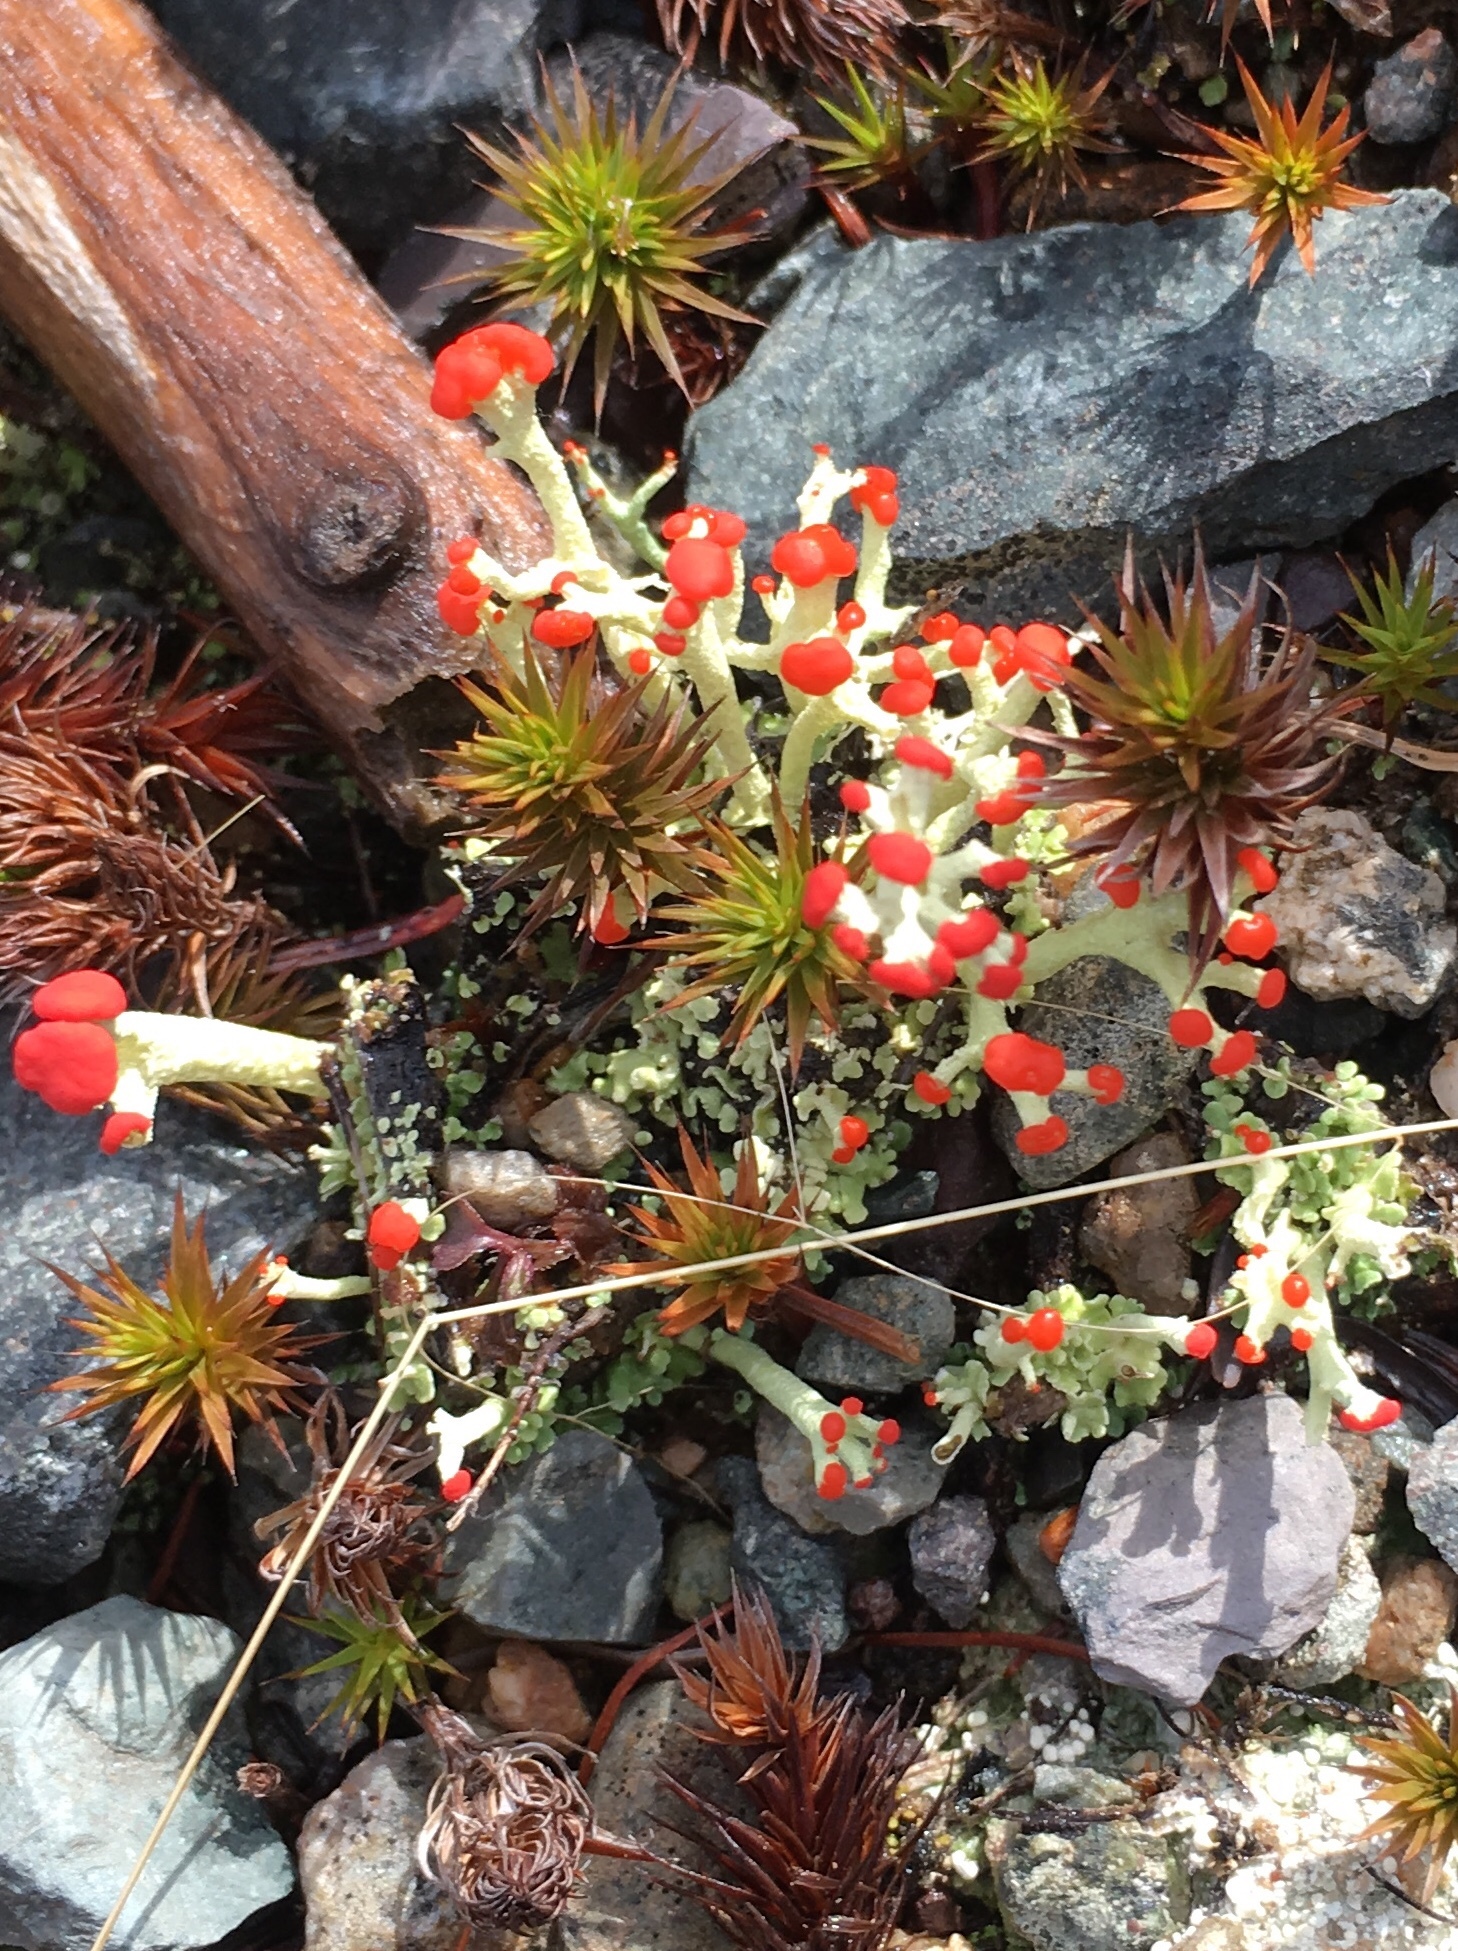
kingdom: Fungi
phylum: Ascomycota
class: Lecanoromycetes
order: Lecanorales
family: Cladoniaceae
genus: Cladonia
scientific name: Cladonia cristatella
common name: British soldier lichen
